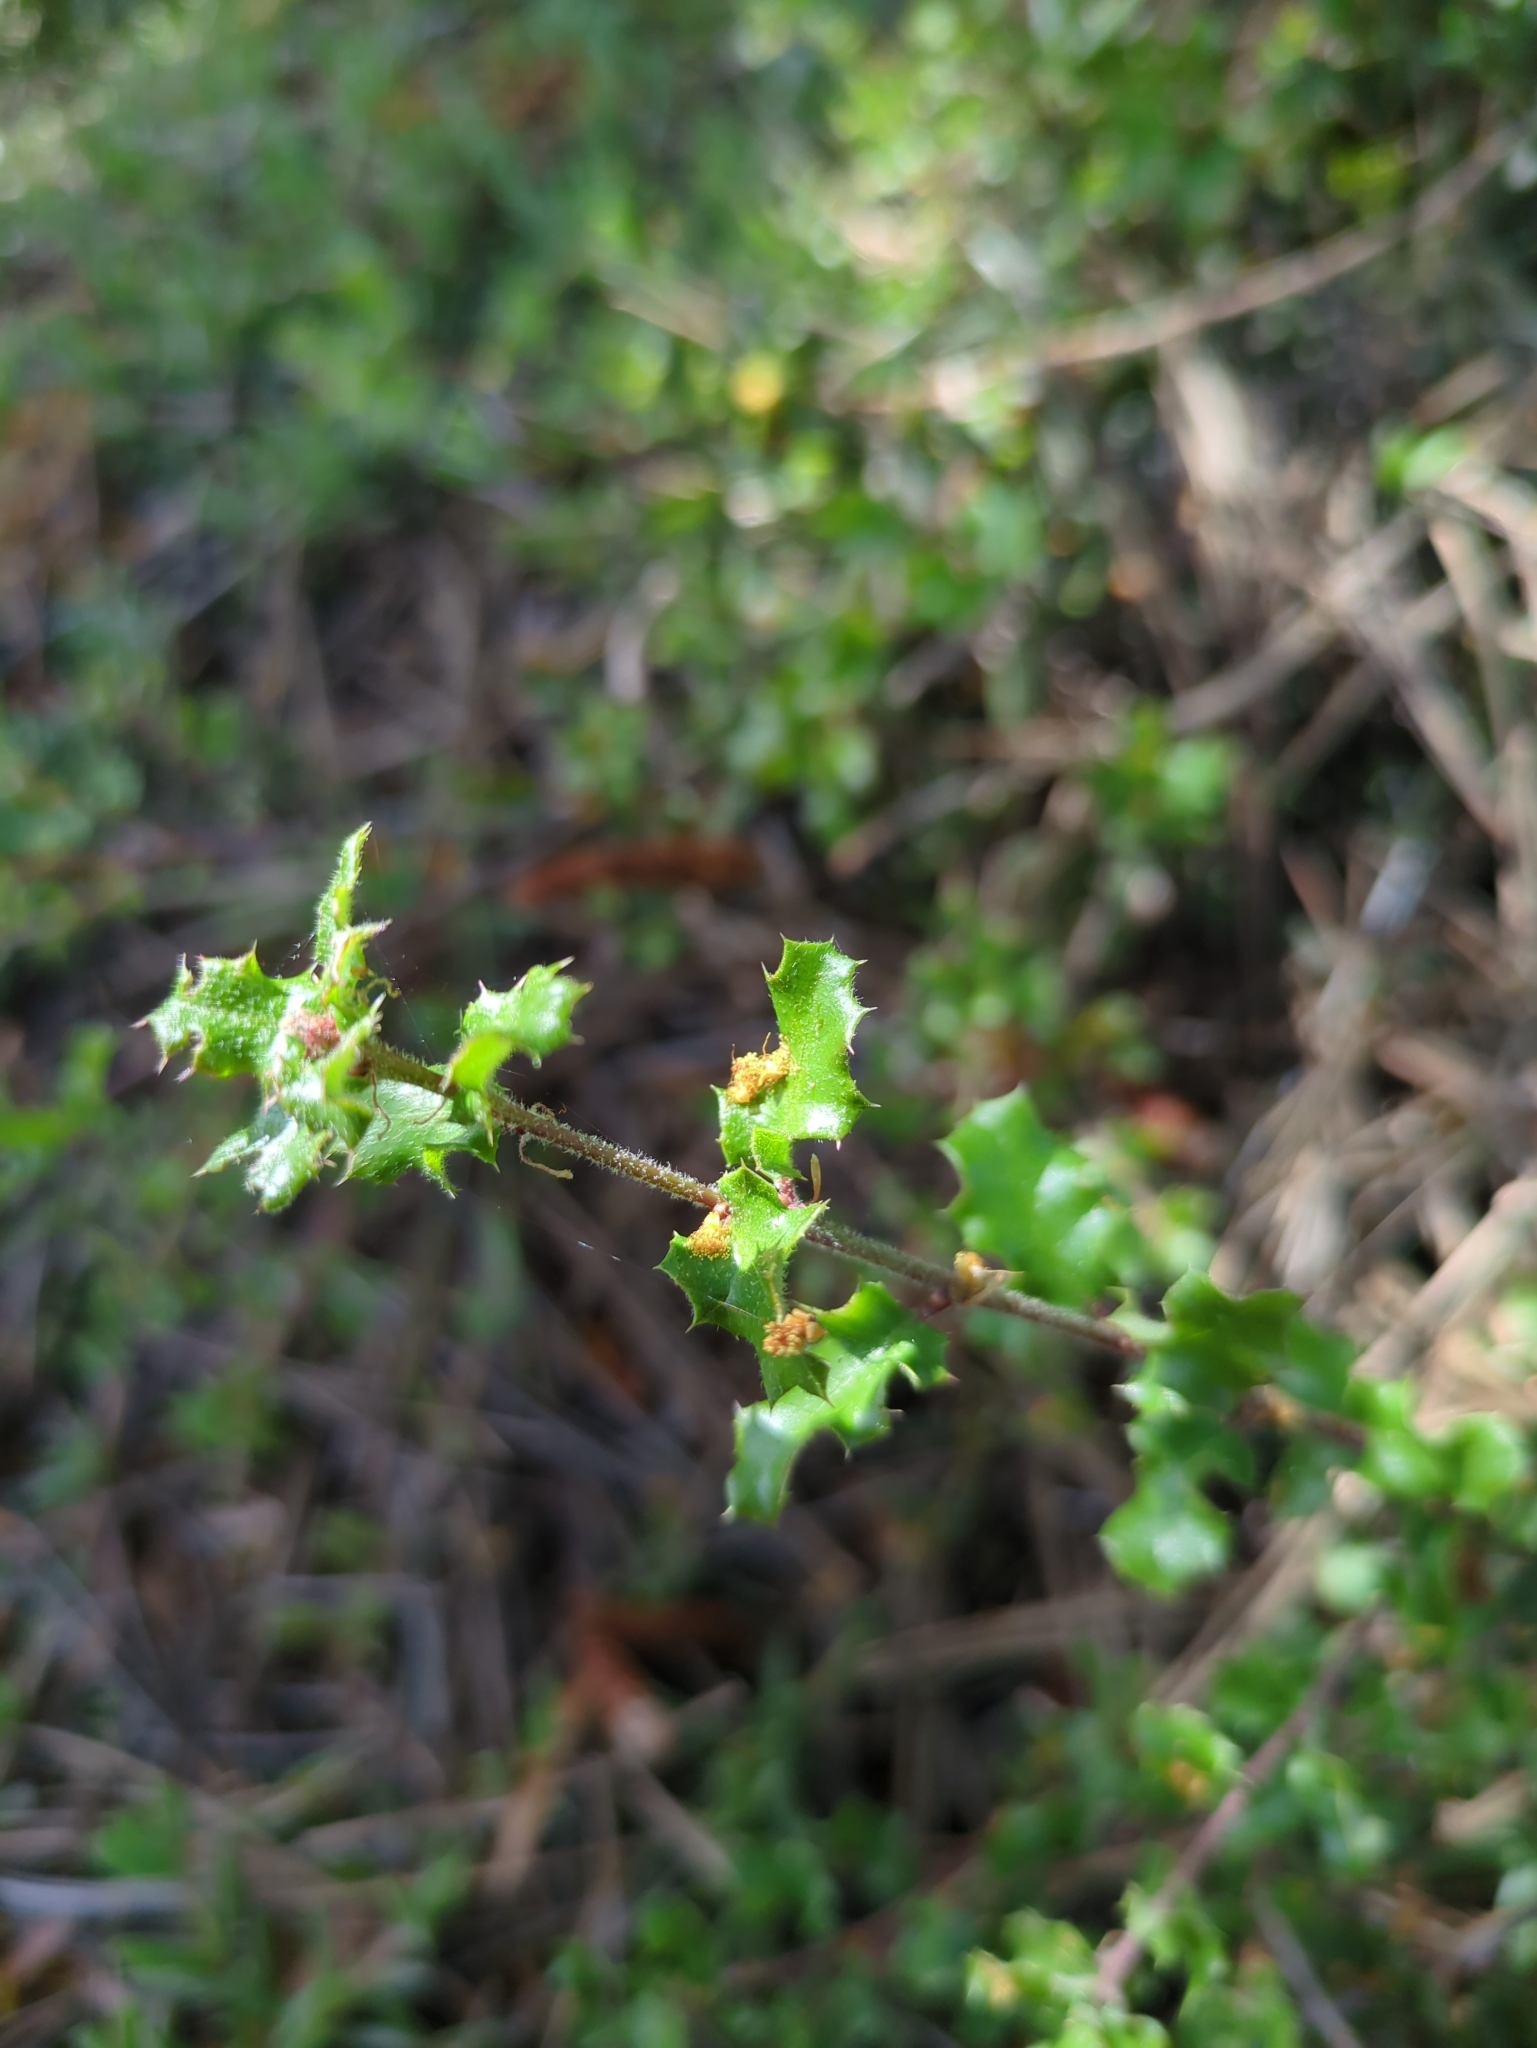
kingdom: Plantae
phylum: Tracheophyta
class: Magnoliopsida
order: Fagales
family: Fagaceae
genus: Quercus
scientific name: Quercus dumosa
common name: Coastal sage scrub oak
